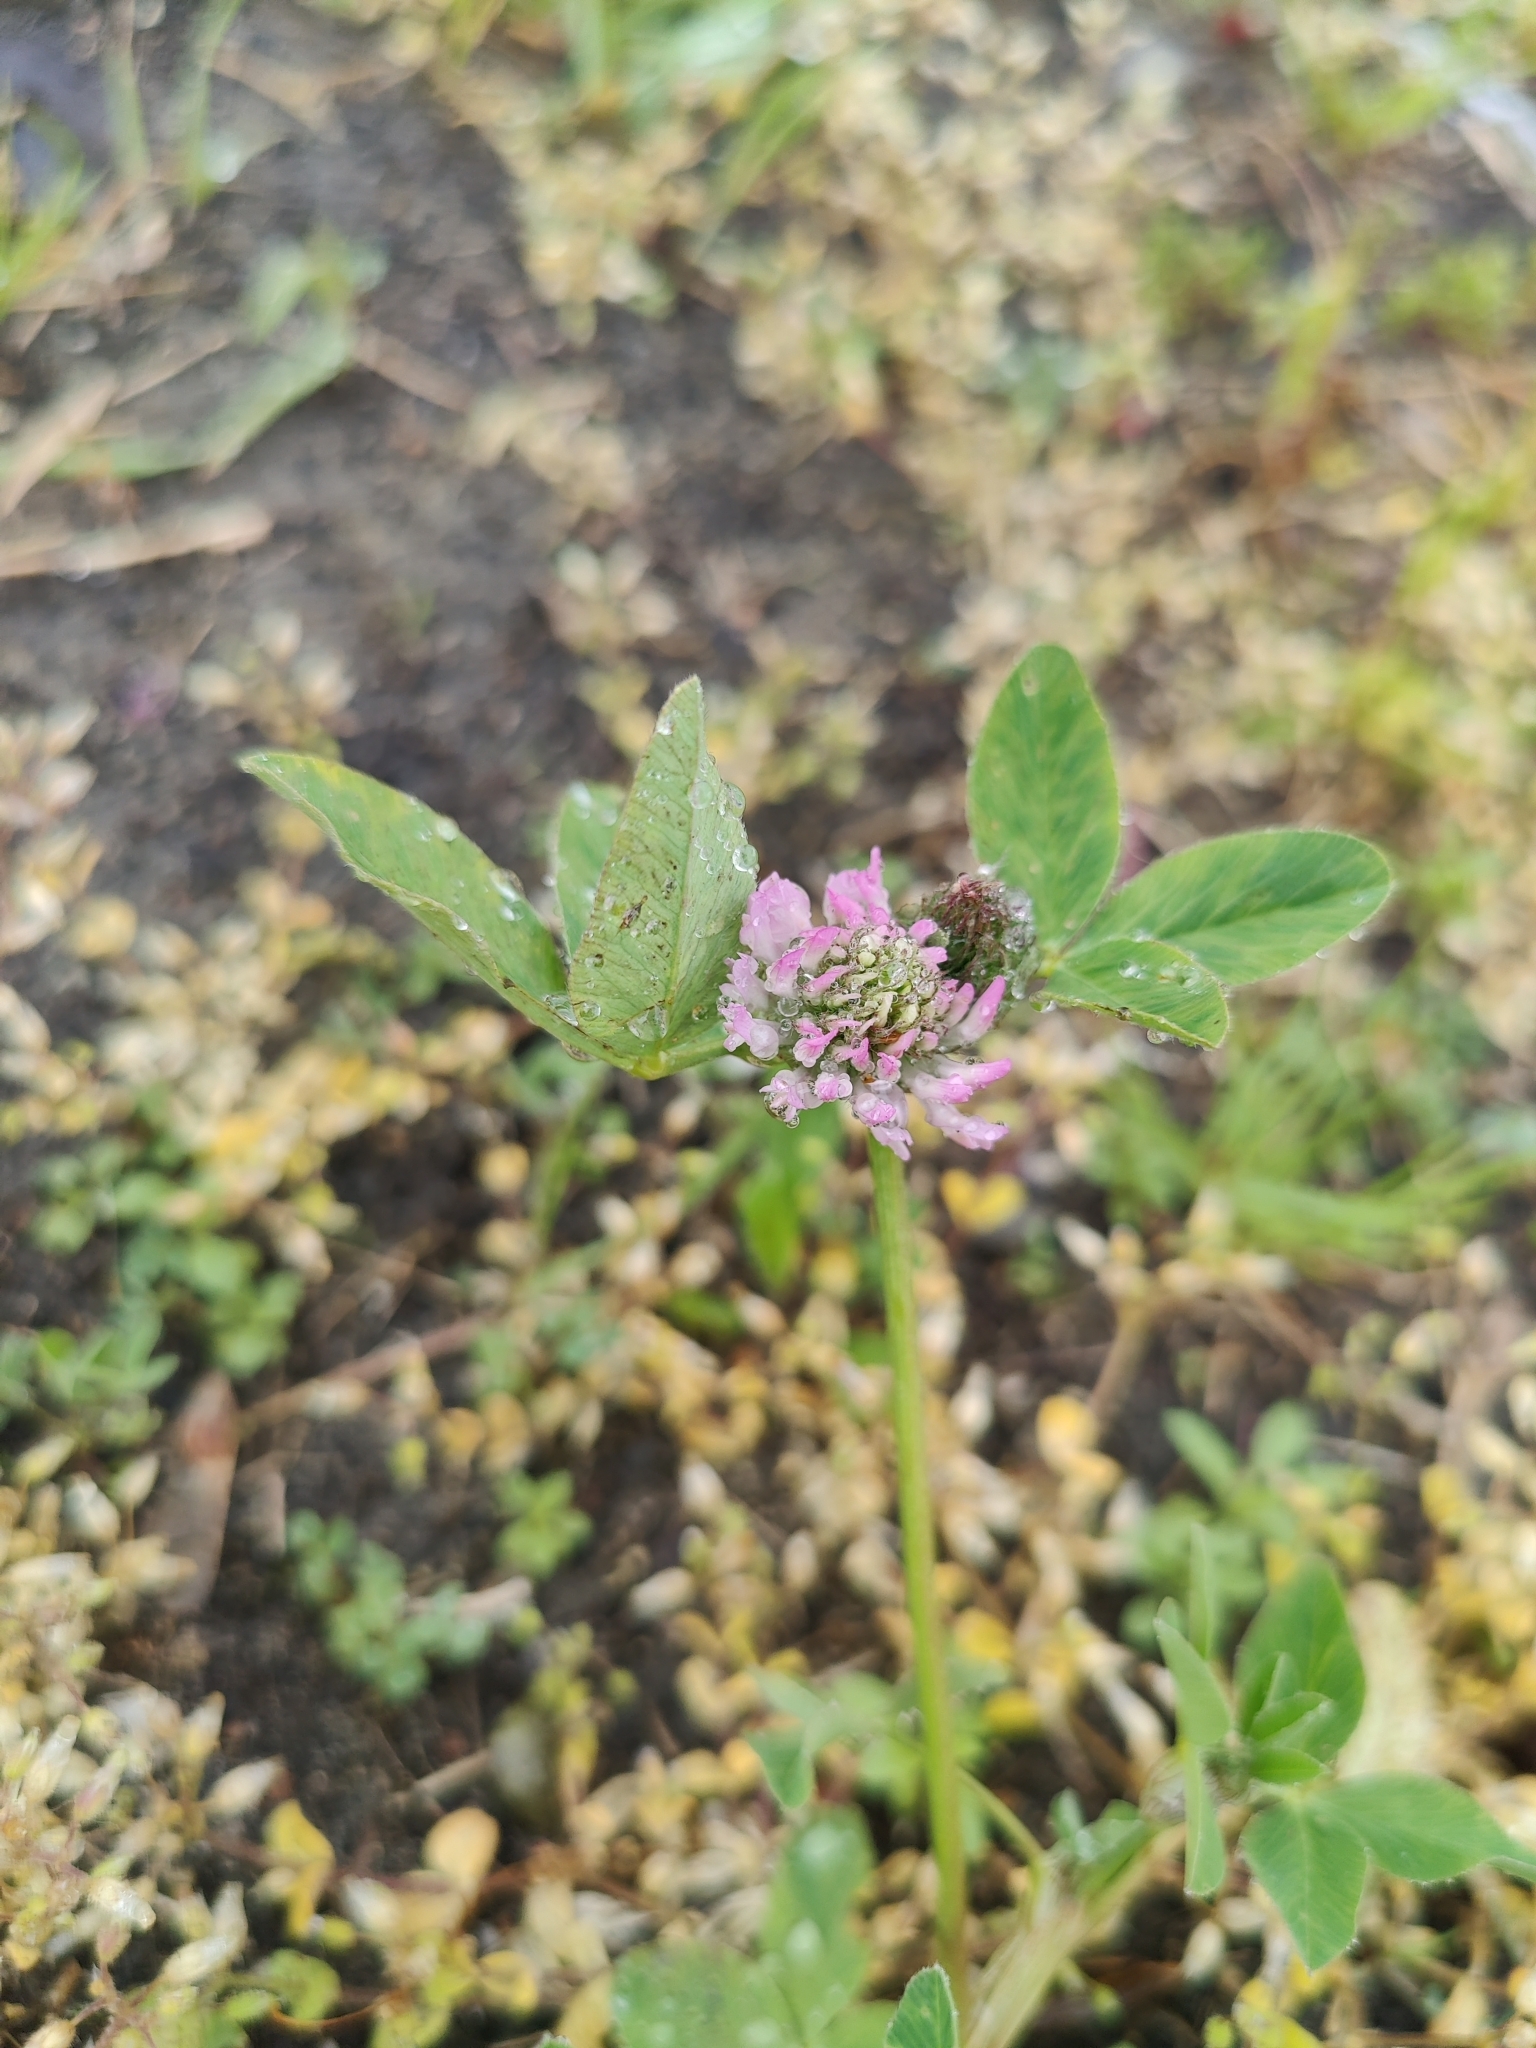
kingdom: Plantae
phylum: Tracheophyta
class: Magnoliopsida
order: Fabales
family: Fabaceae
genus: Trifolium
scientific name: Trifolium pratense
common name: Red clover
